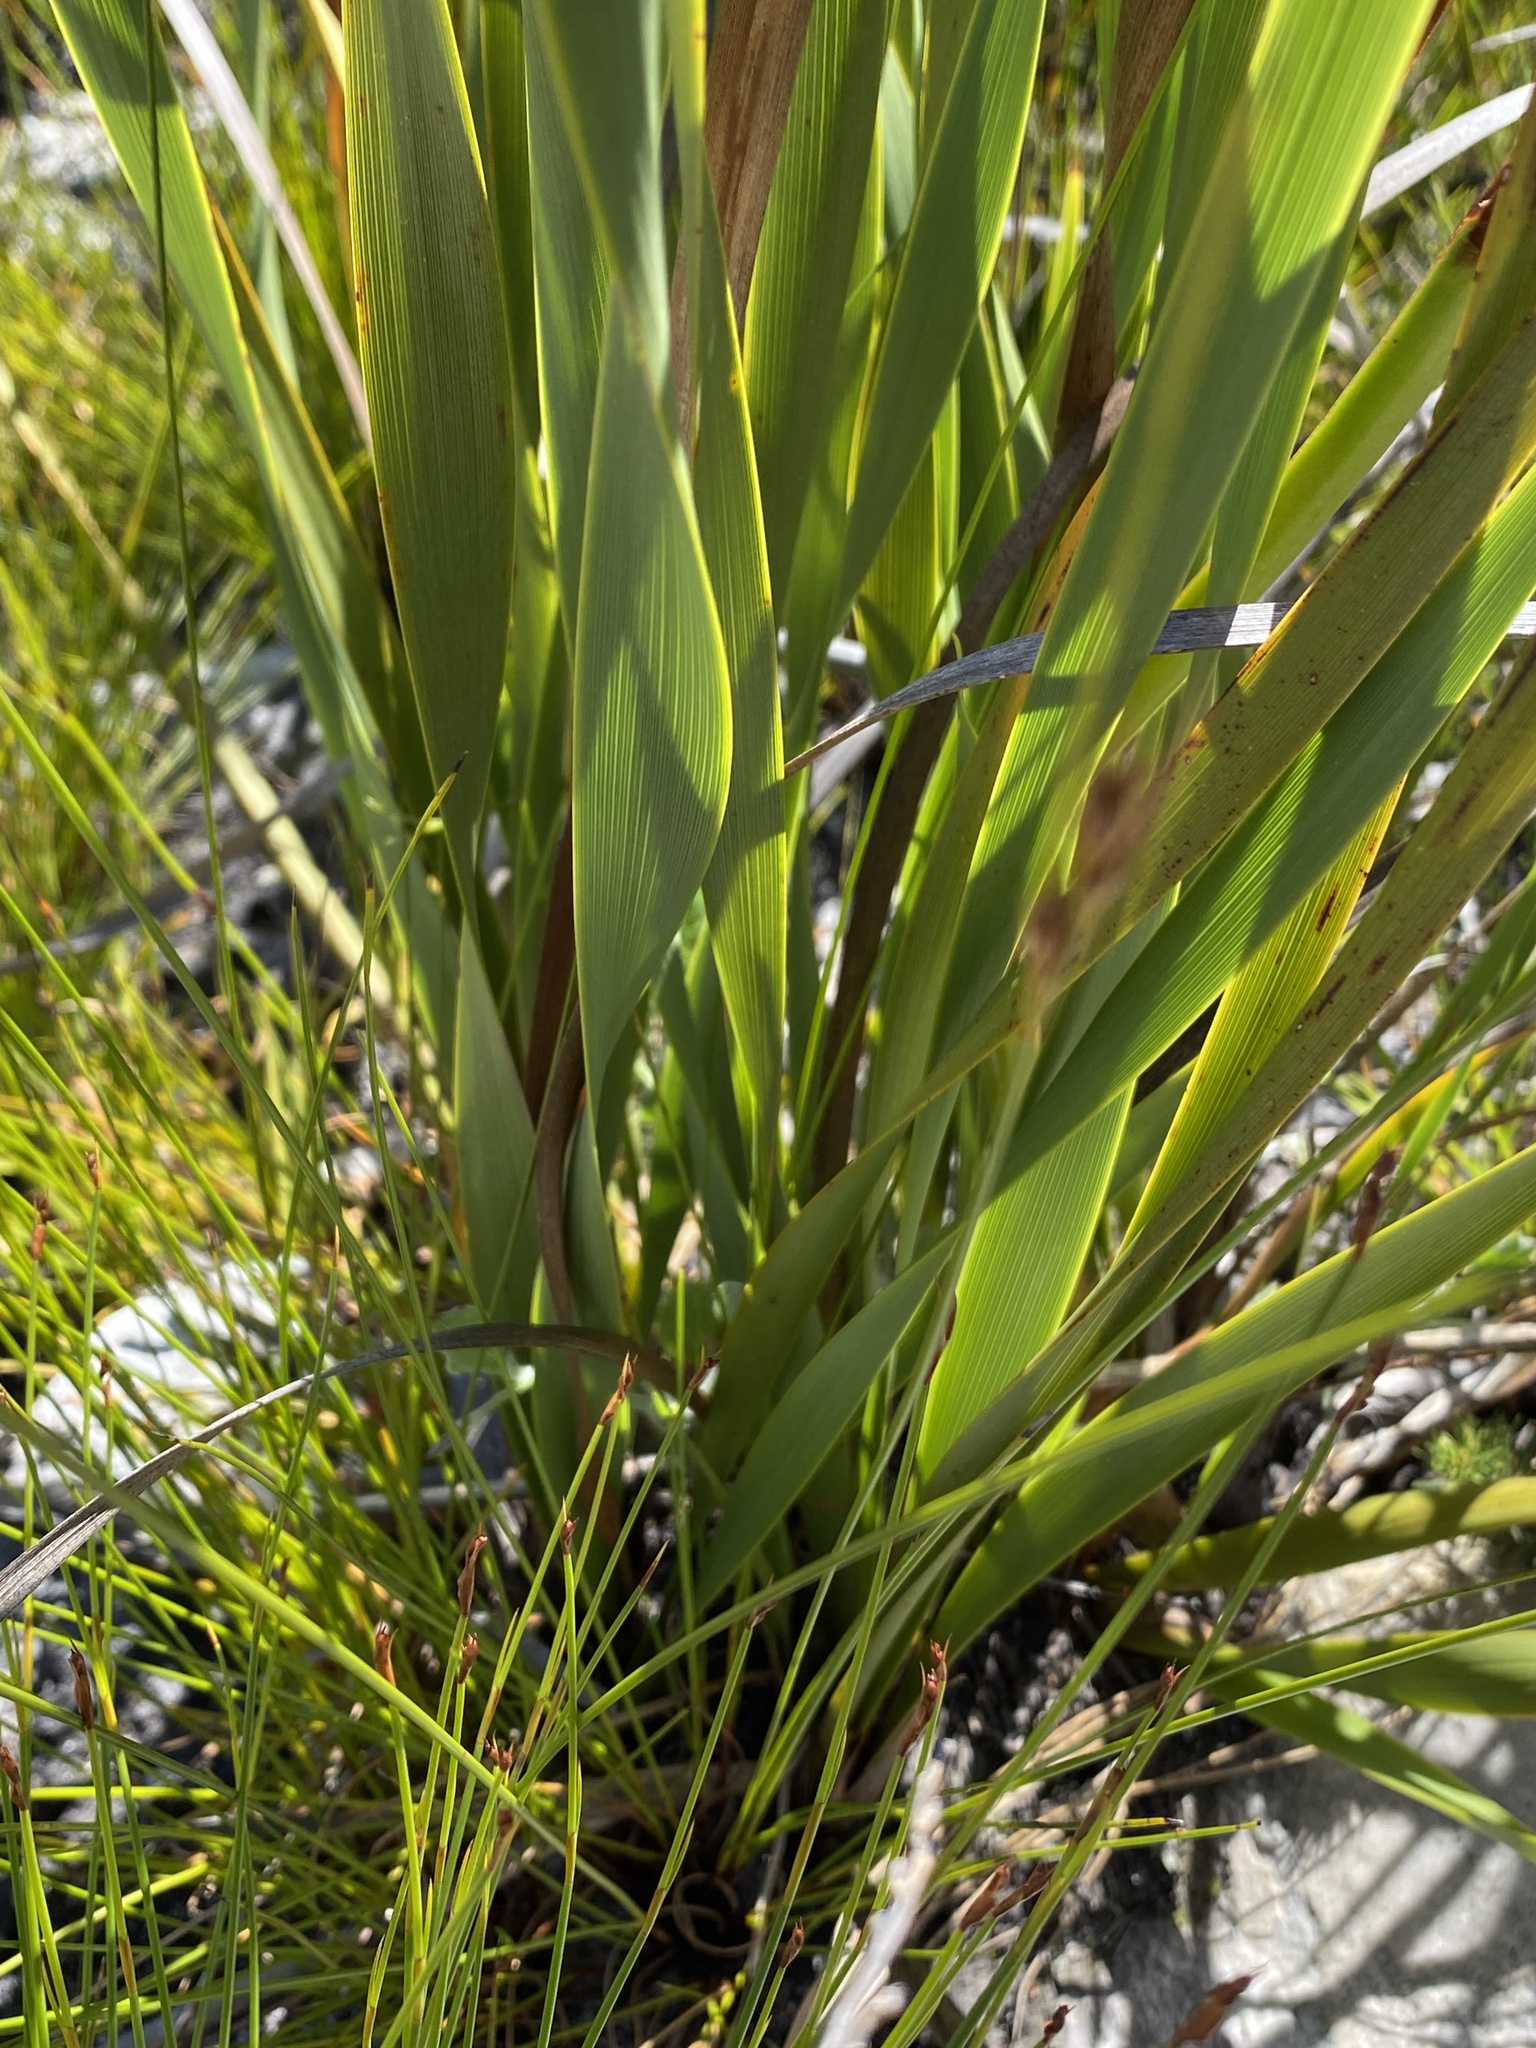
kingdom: Plantae
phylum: Tracheophyta
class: Liliopsida
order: Asparagales
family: Iridaceae
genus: Pillansia
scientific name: Pillansia templemannii
